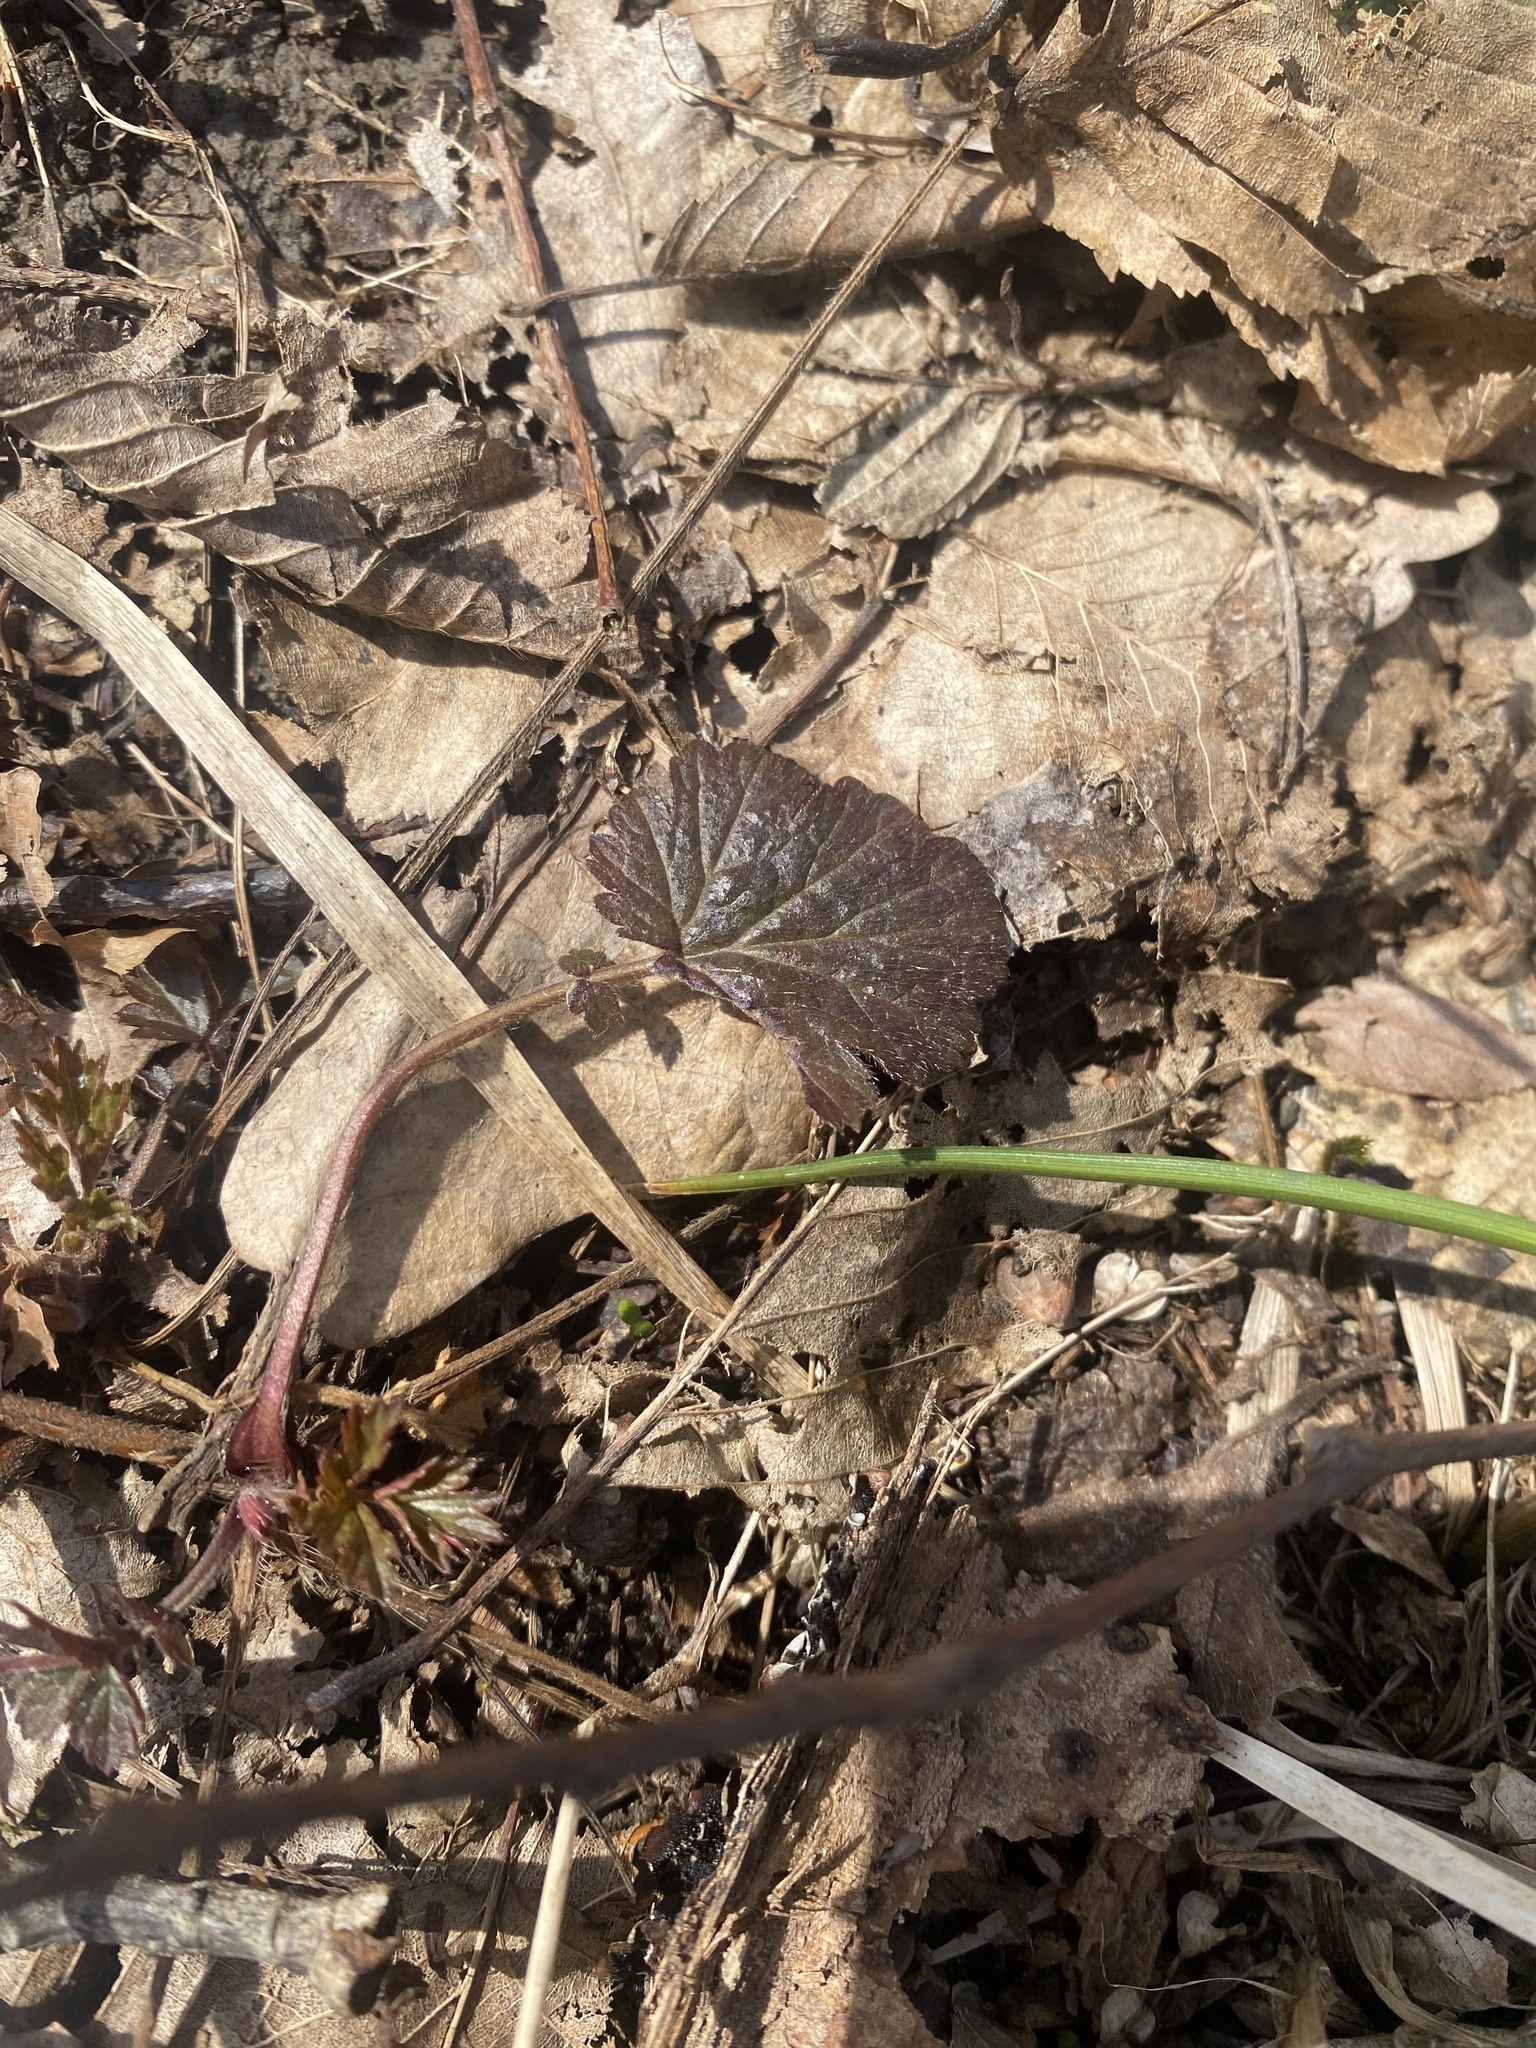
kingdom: Plantae
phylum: Tracheophyta
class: Magnoliopsida
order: Rosales
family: Rosaceae
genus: Geum
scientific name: Geum
